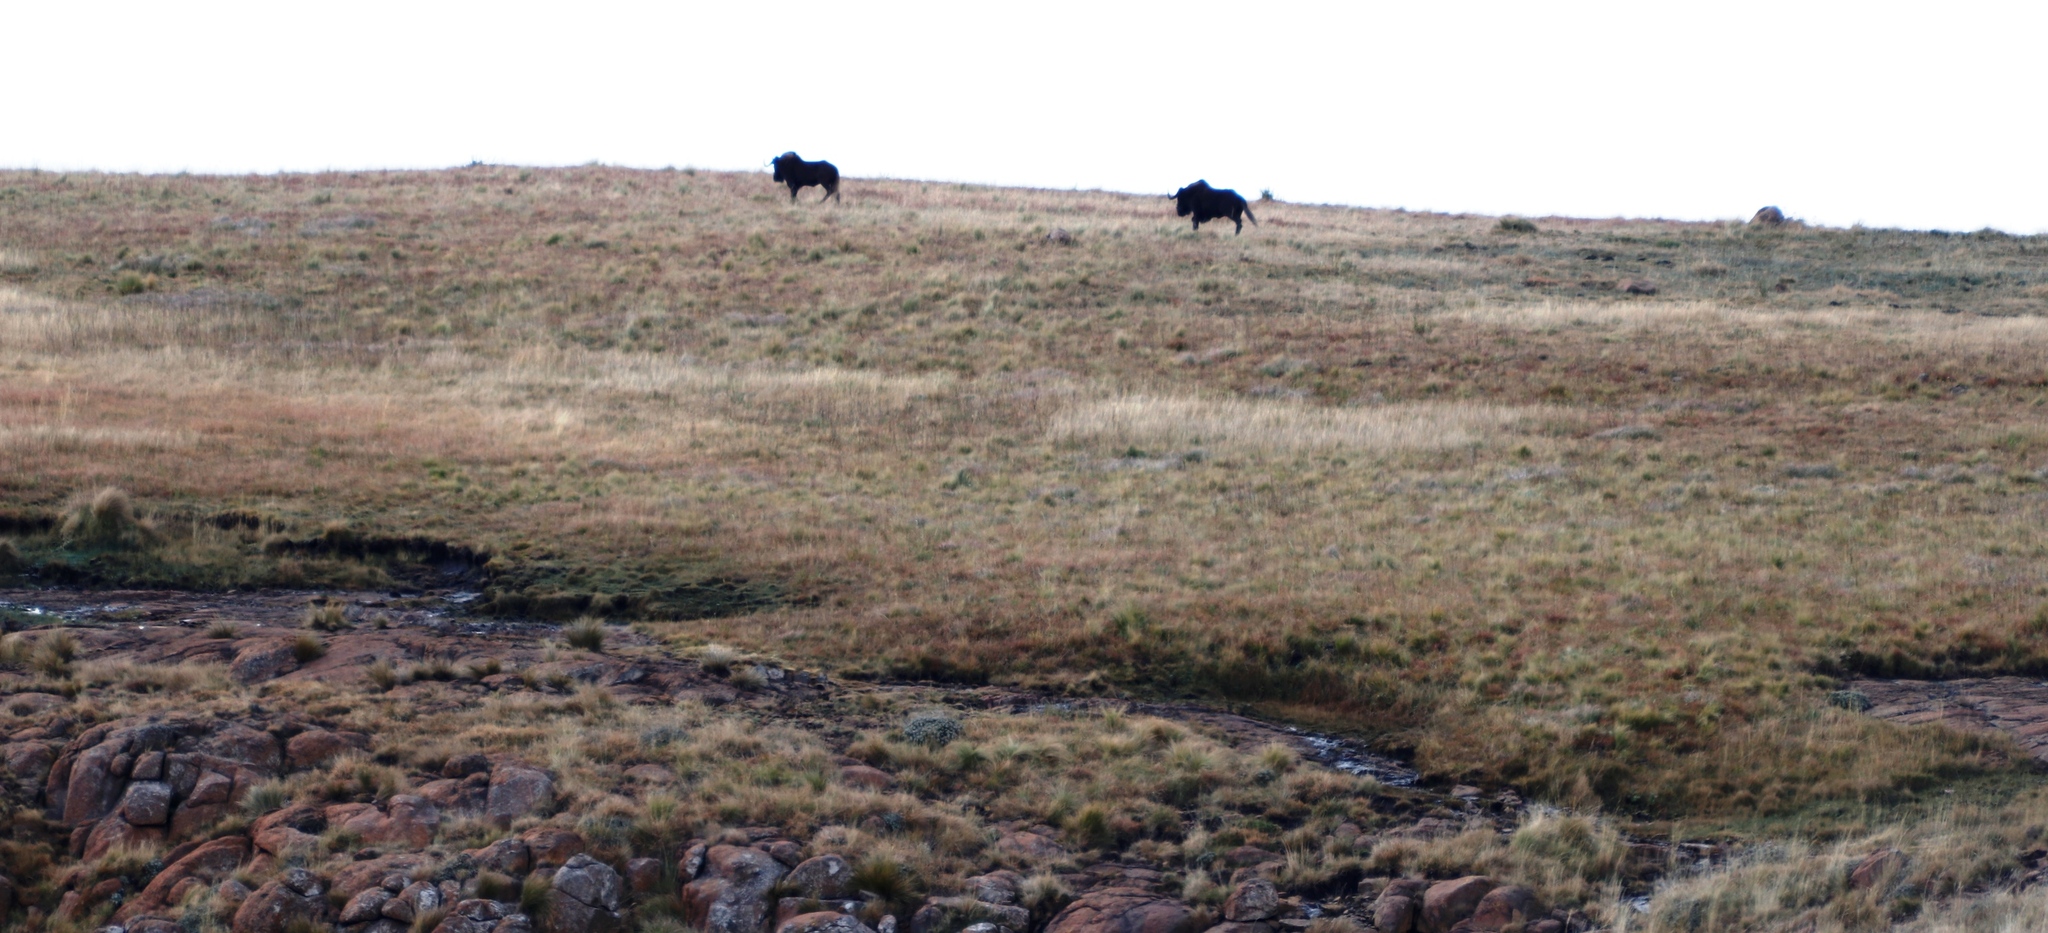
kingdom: Animalia
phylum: Chordata
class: Mammalia
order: Artiodactyla
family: Bovidae
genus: Connochaetes
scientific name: Connochaetes gnou
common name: Black wildebeest
